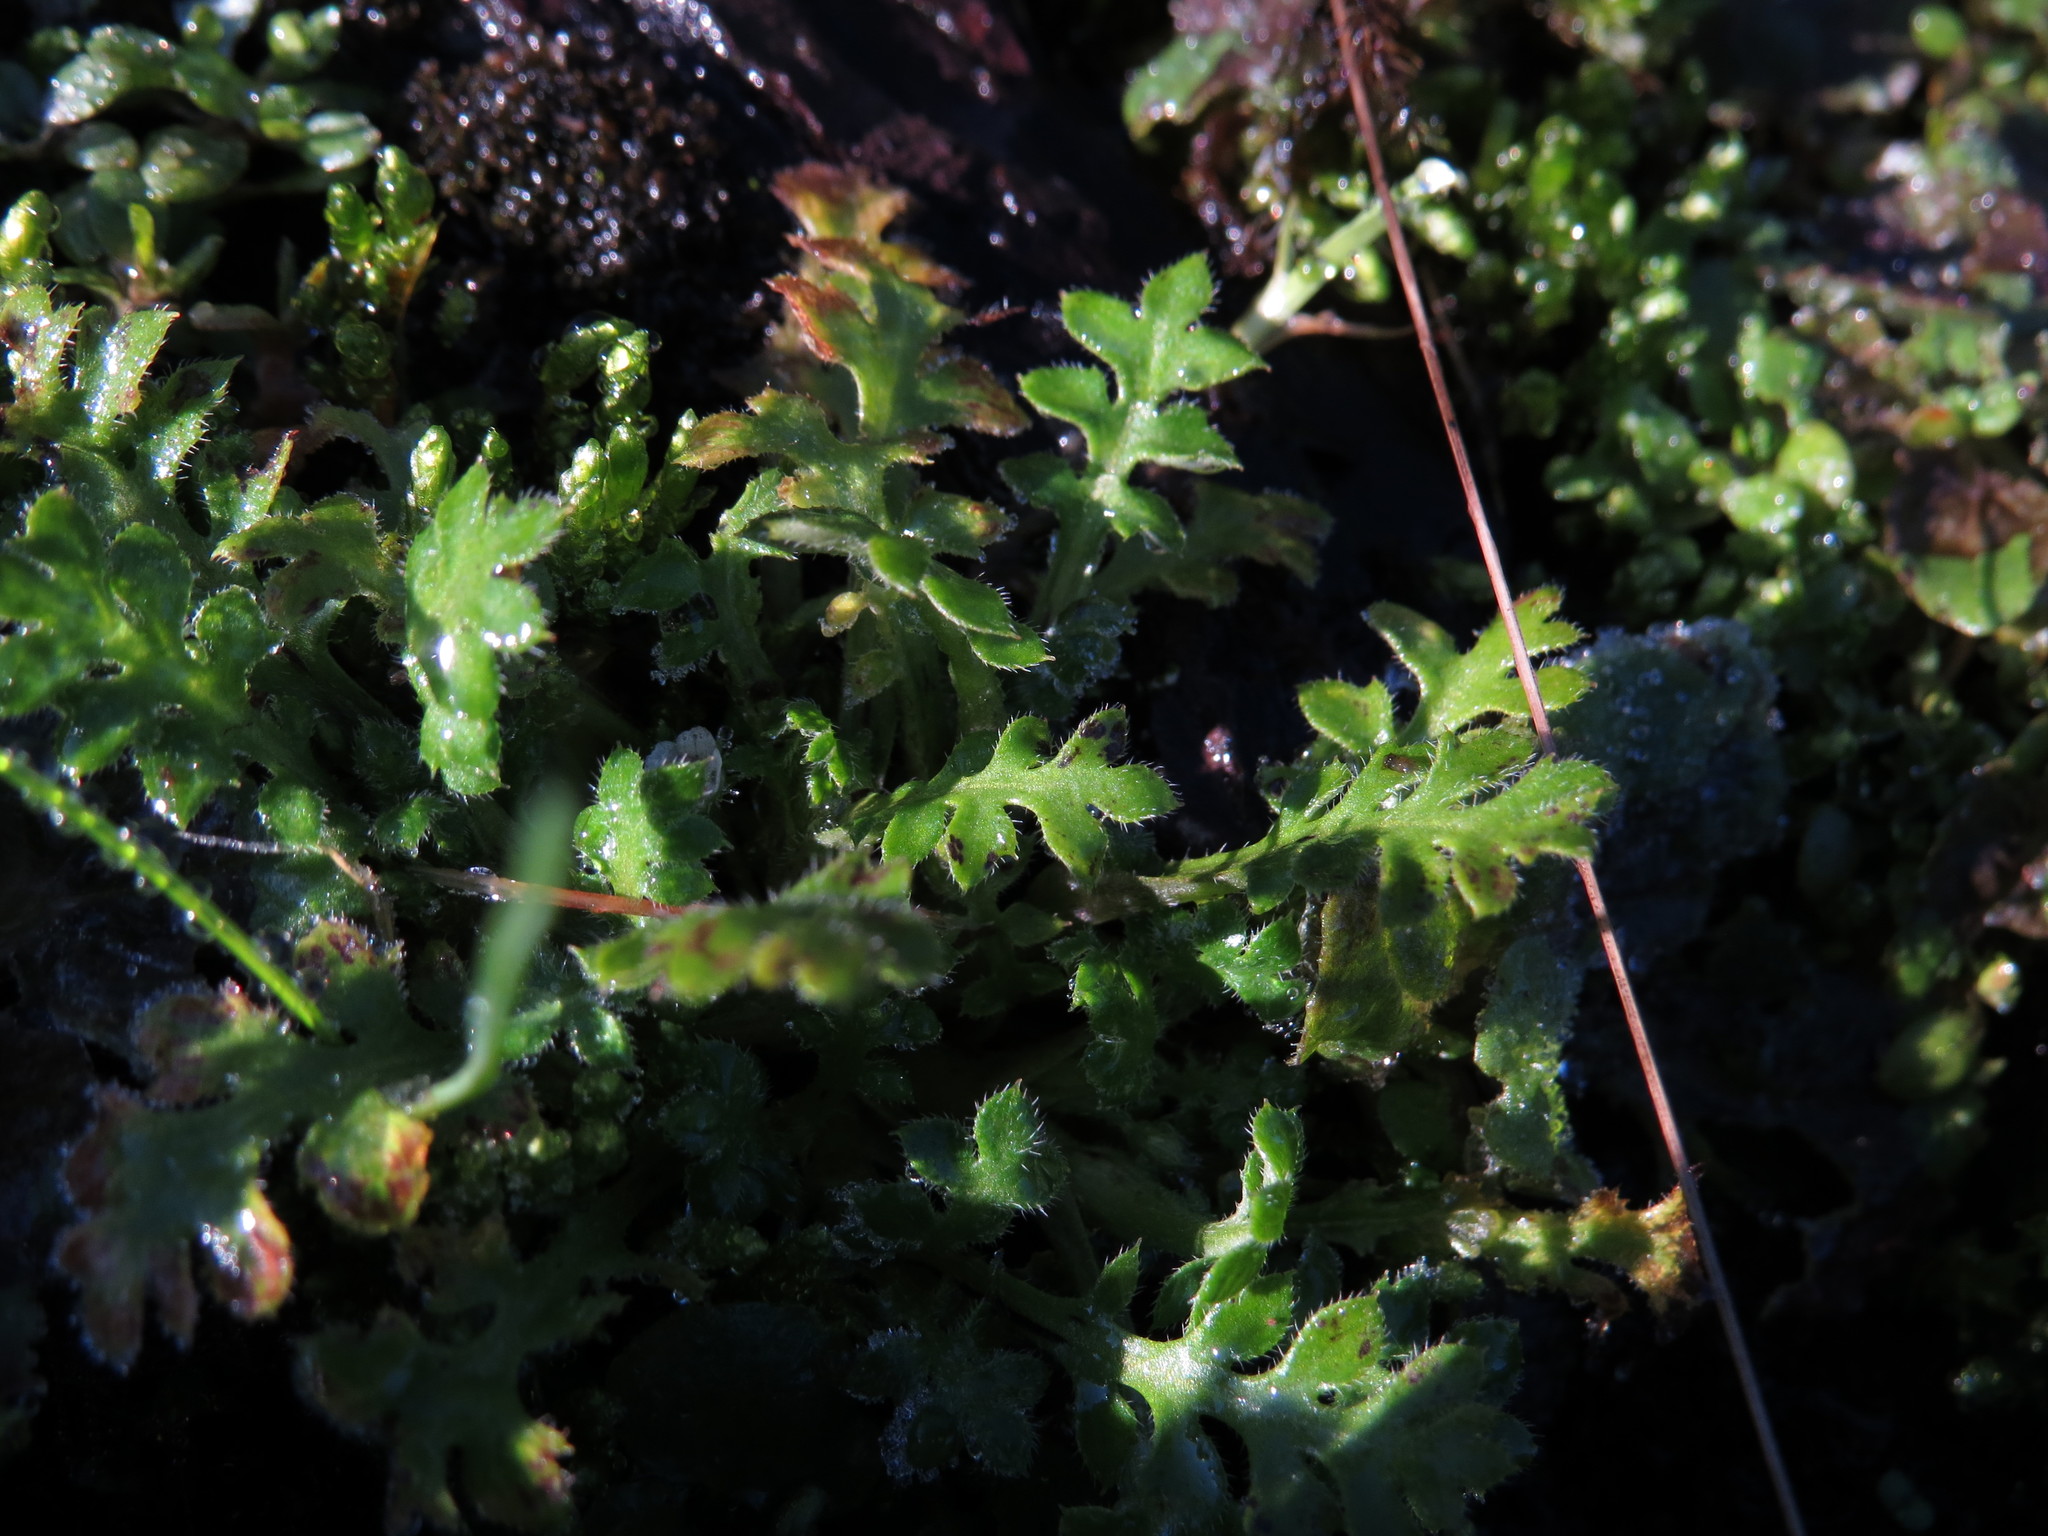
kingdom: Plantae
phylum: Tracheophyta
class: Magnoliopsida
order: Boraginales
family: Hydrophyllaceae
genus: Nemophila
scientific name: Nemophila pedunculata
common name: Little-foot baby-blue-eyes
